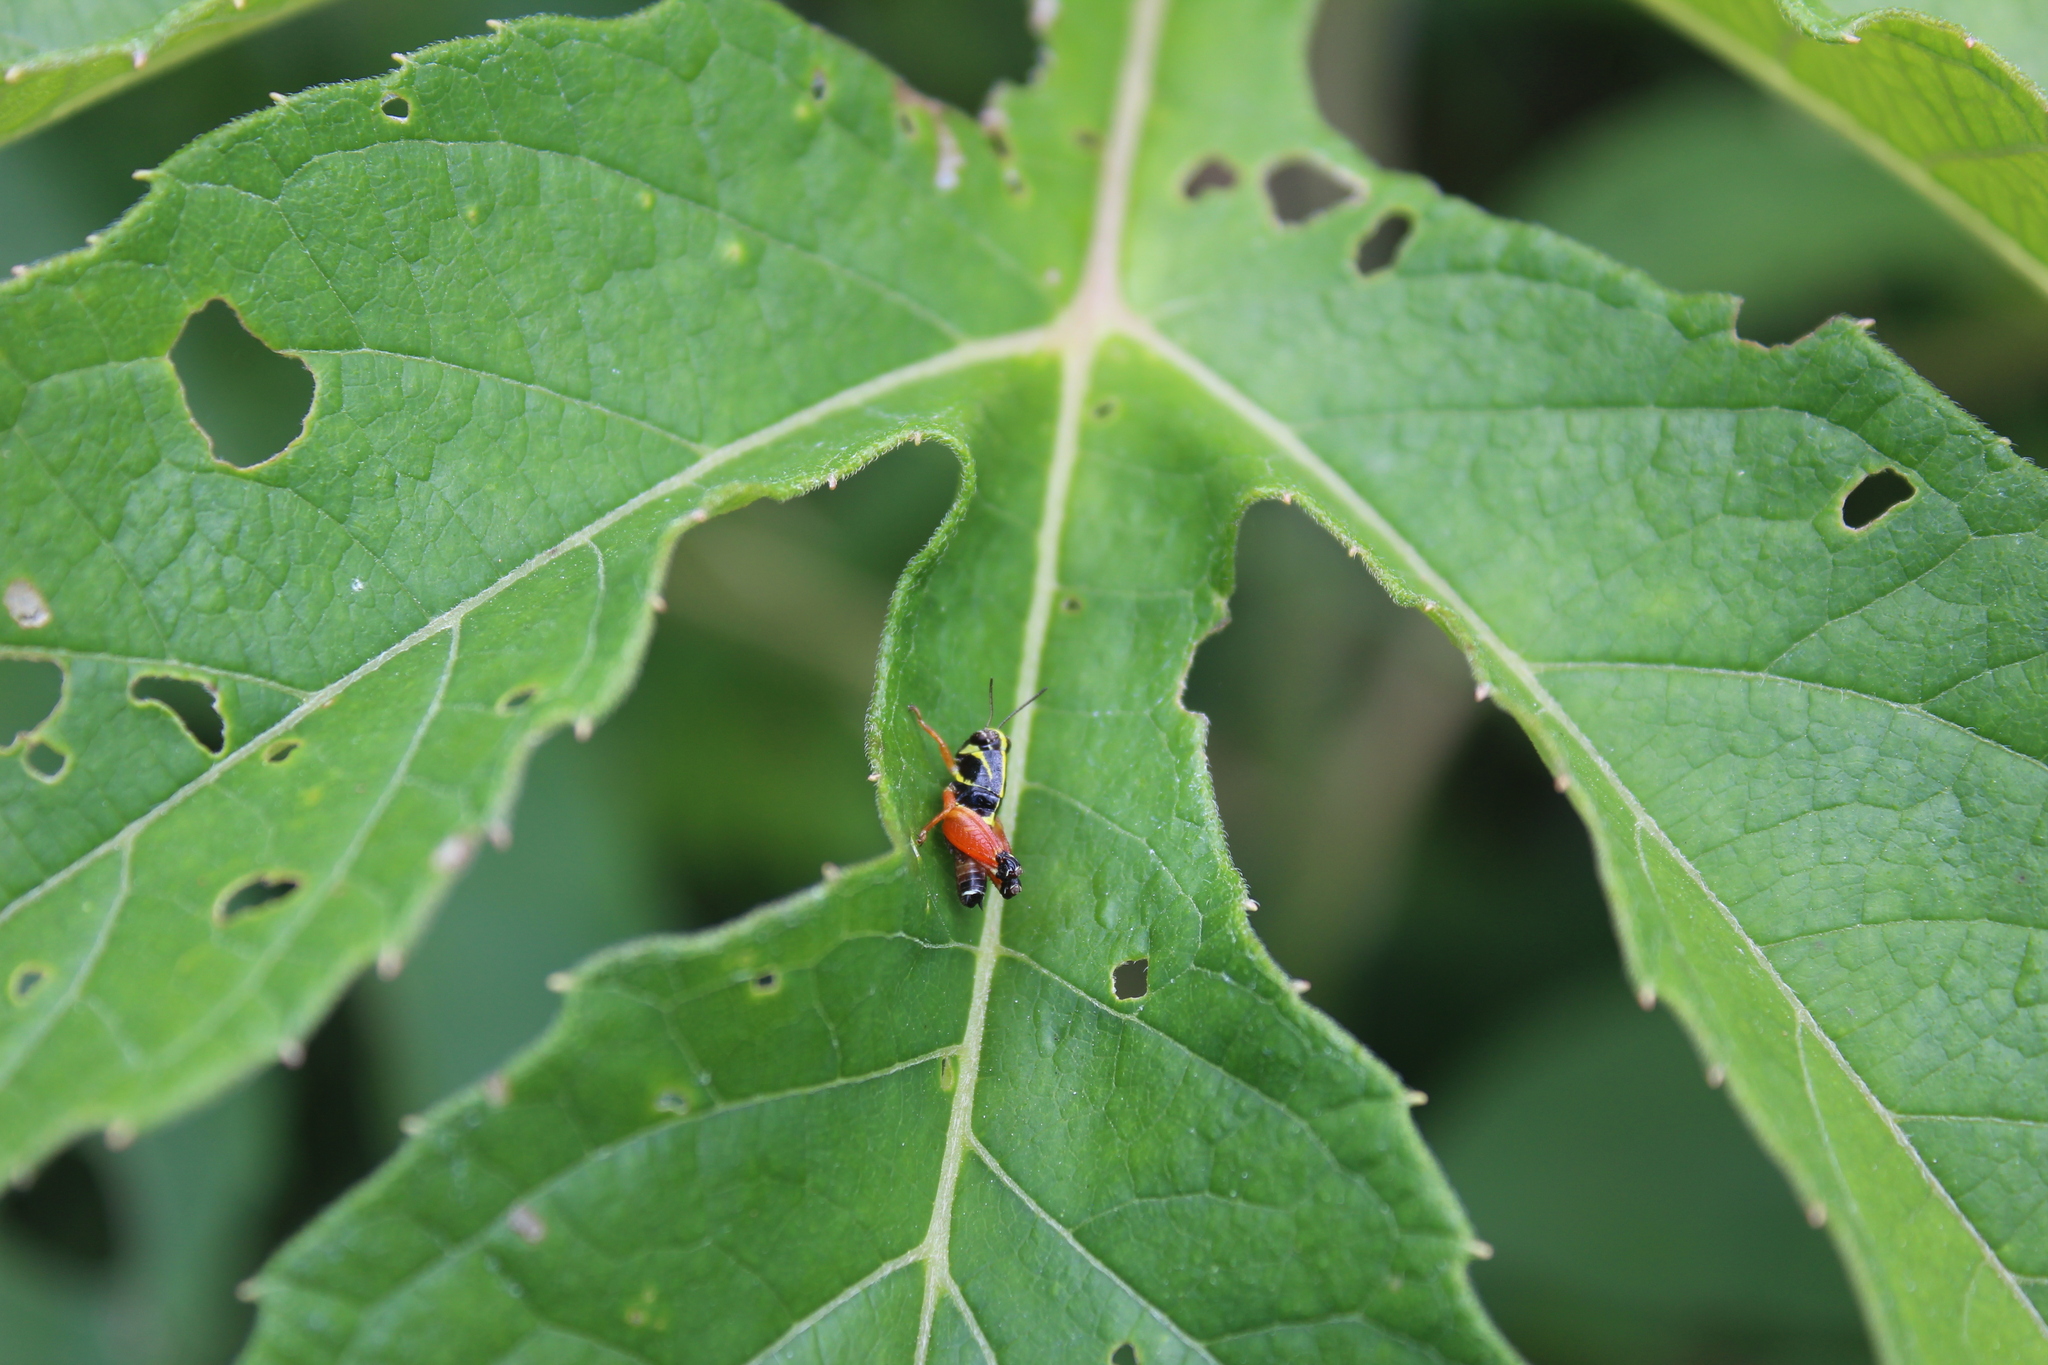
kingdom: Animalia
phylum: Arthropoda
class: Insecta
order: Orthoptera
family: Acrididae
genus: Aidemona
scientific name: Aidemona azteca
